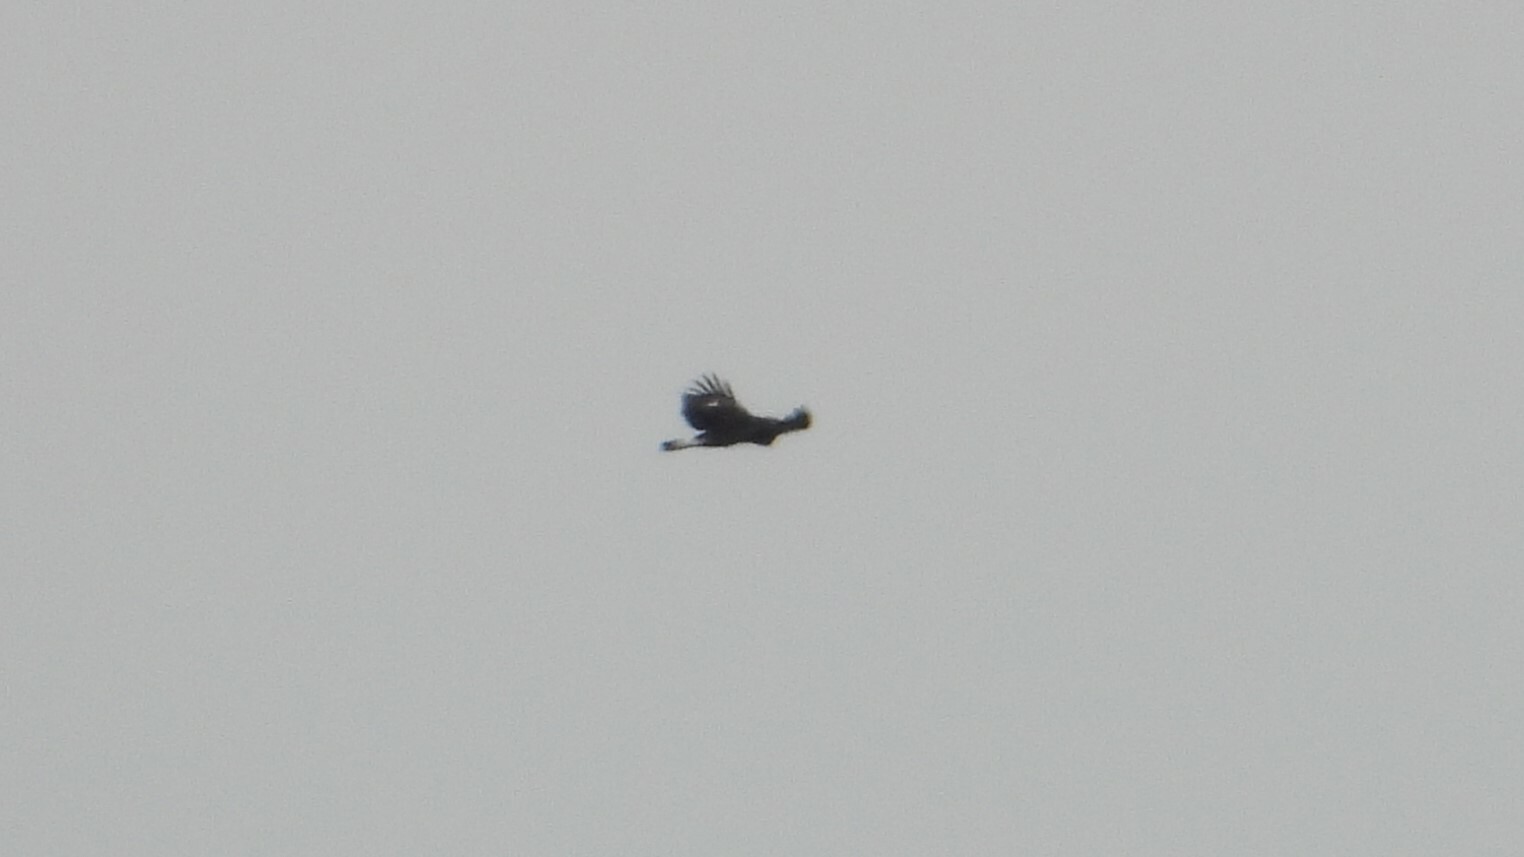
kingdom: Animalia
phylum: Chordata
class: Aves
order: Accipitriformes
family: Accipitridae
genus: Aquila
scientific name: Aquila chrysaetos
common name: Golden eagle
